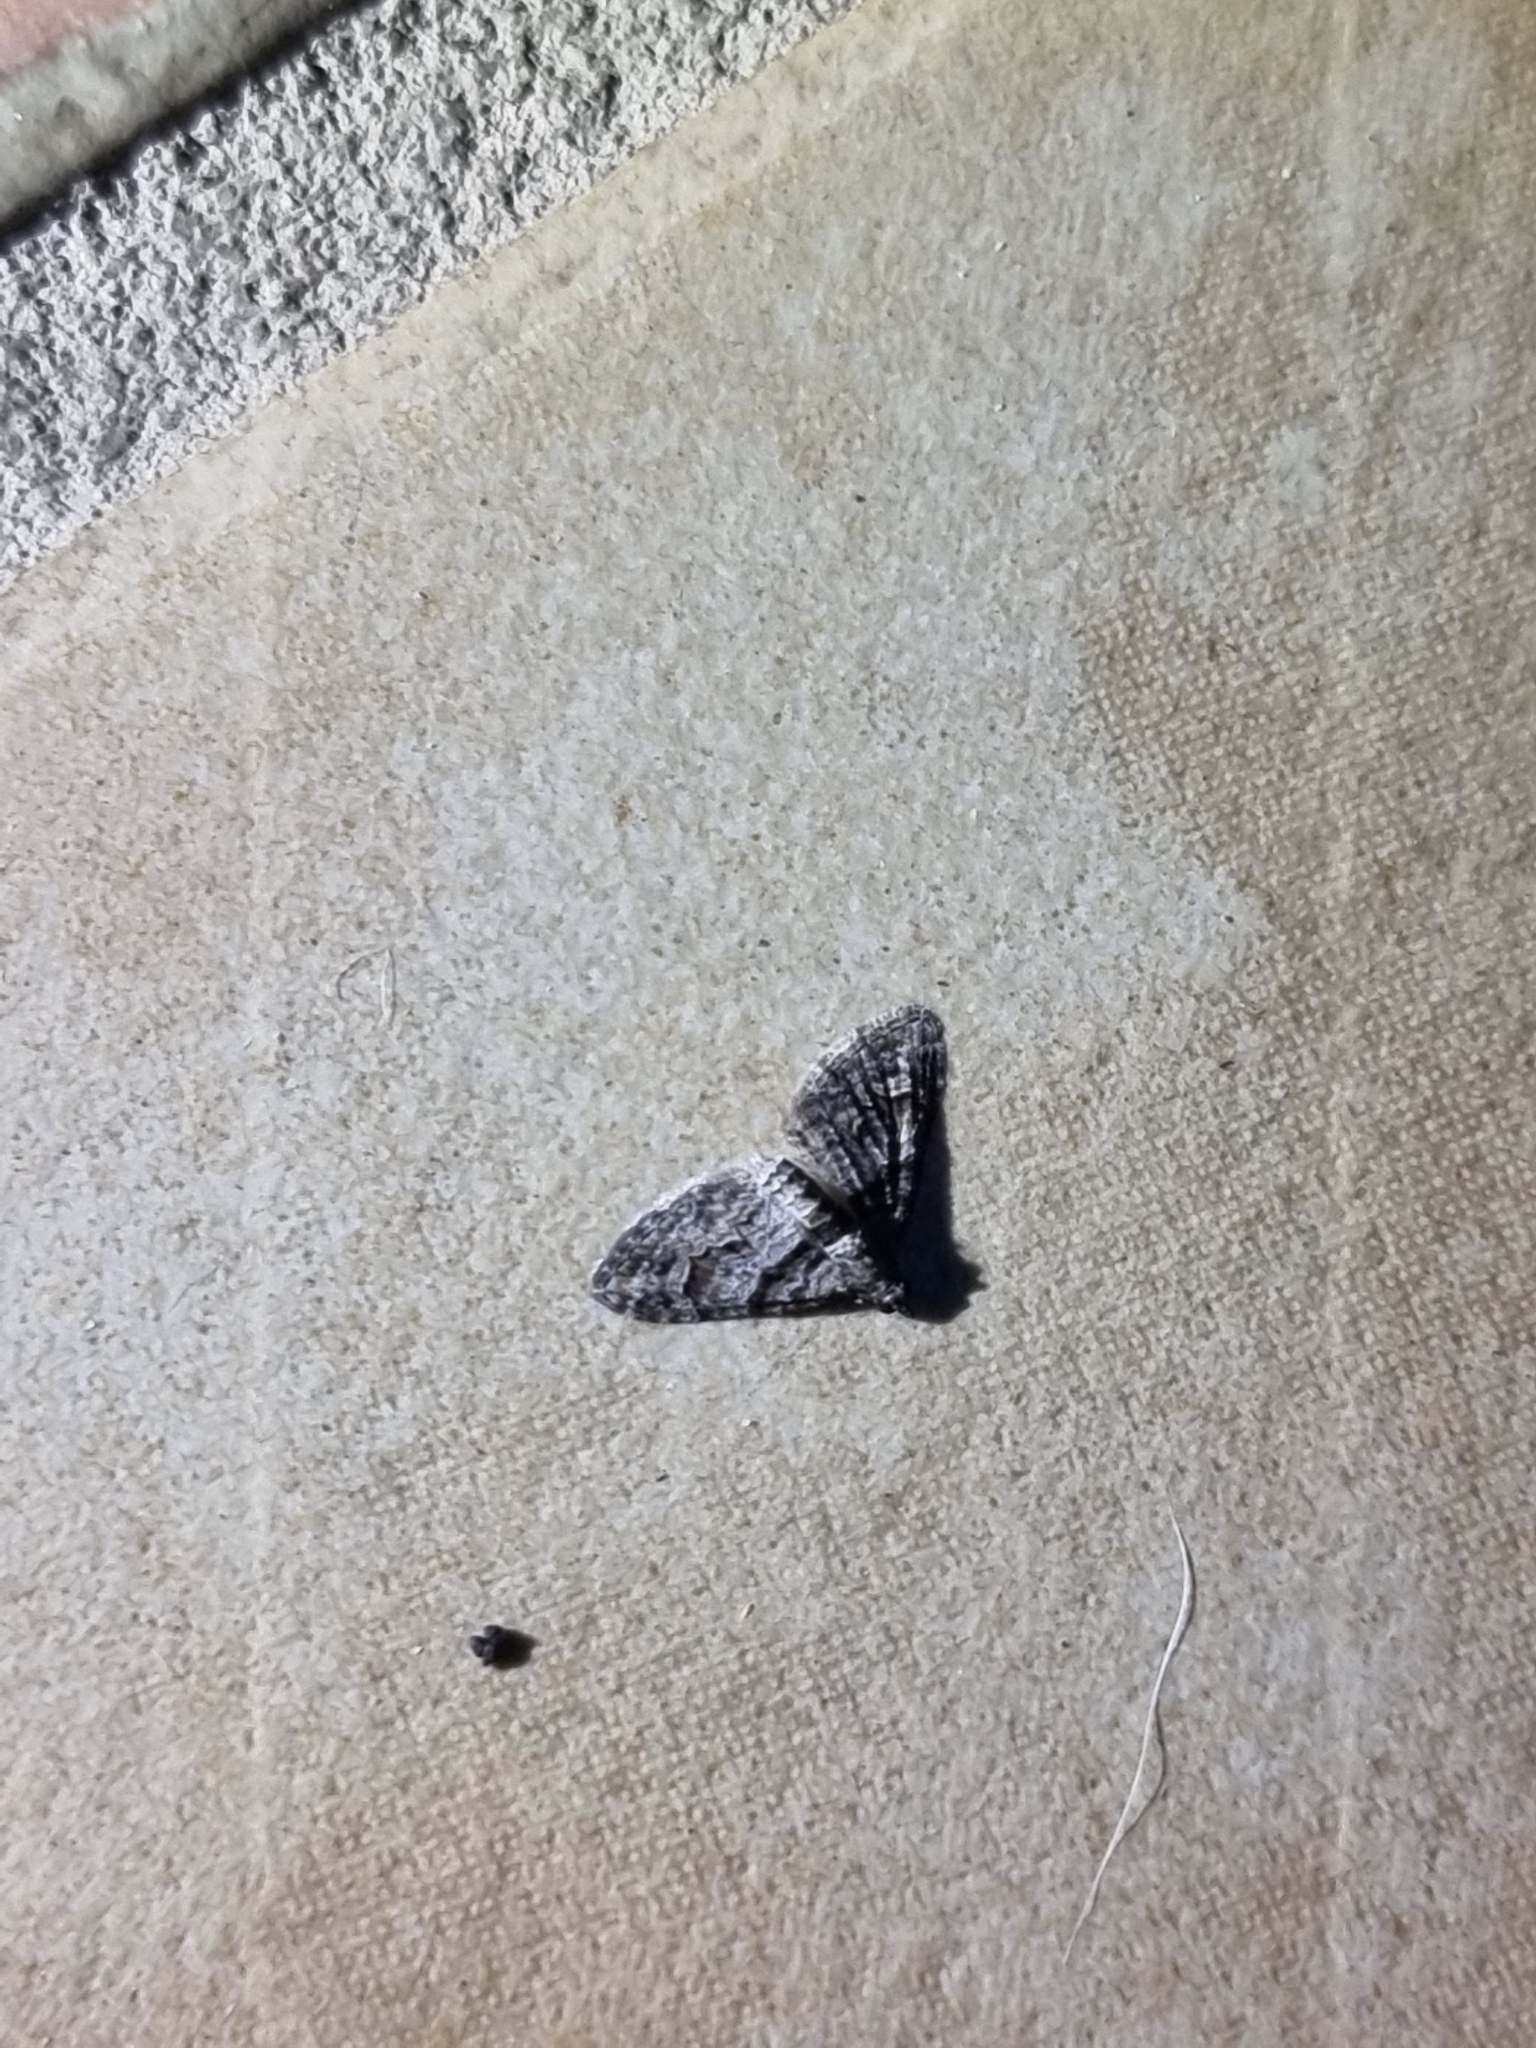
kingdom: Animalia
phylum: Arthropoda
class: Insecta
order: Lepidoptera
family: Geometridae
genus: Phrissogonus
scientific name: Phrissogonus laticostata
